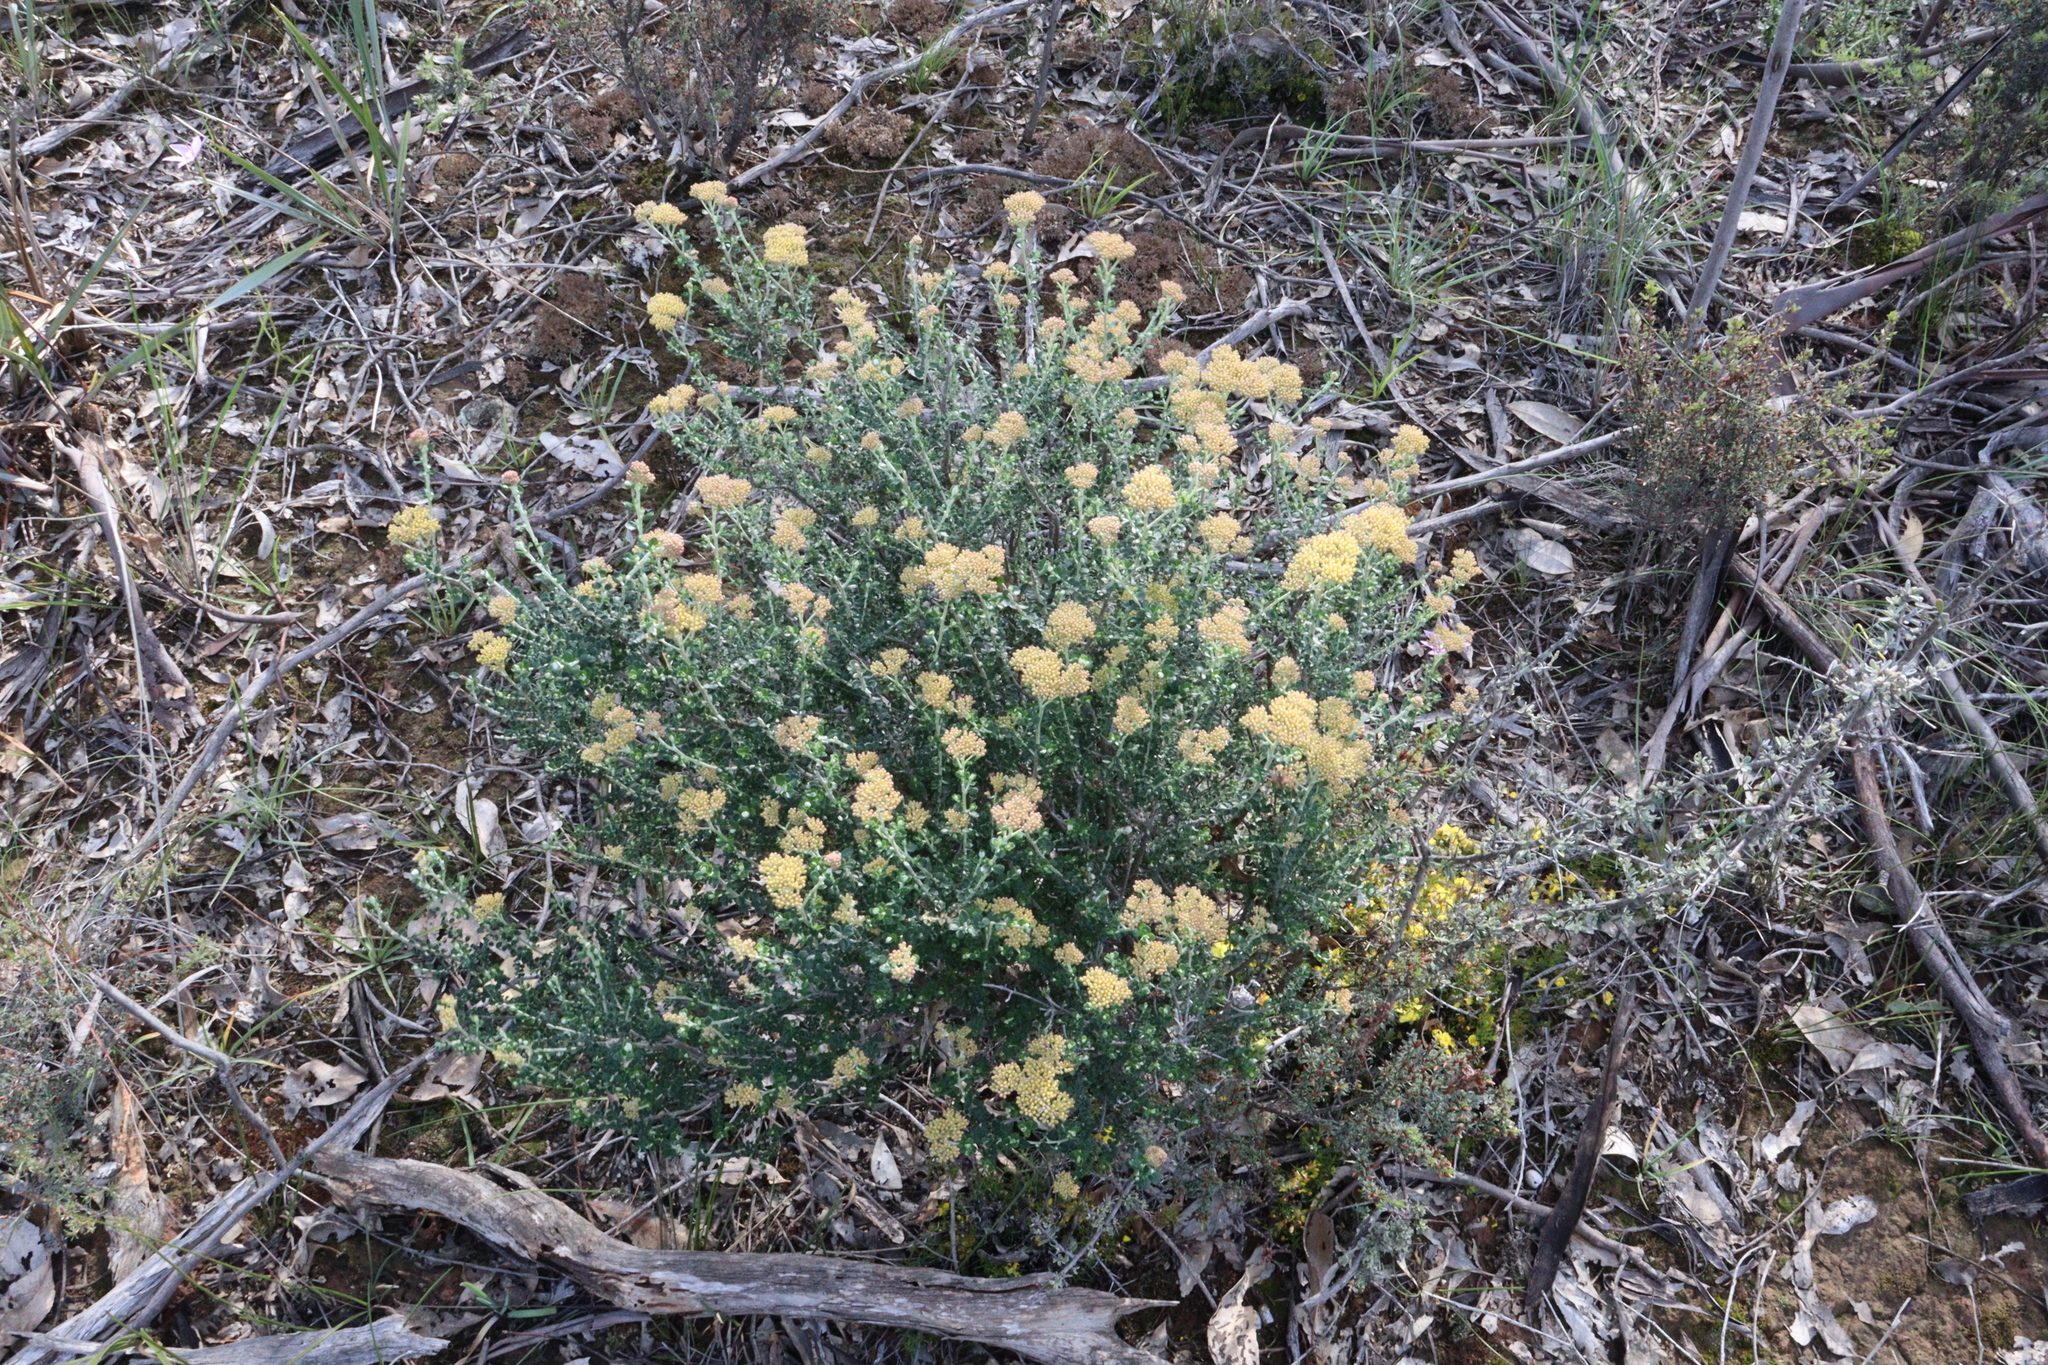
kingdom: Plantae
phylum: Tracheophyta
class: Magnoliopsida
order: Asterales
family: Asteraceae
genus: Ozothamnus
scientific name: Ozothamnus obcordatus
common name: Grey everlasting
